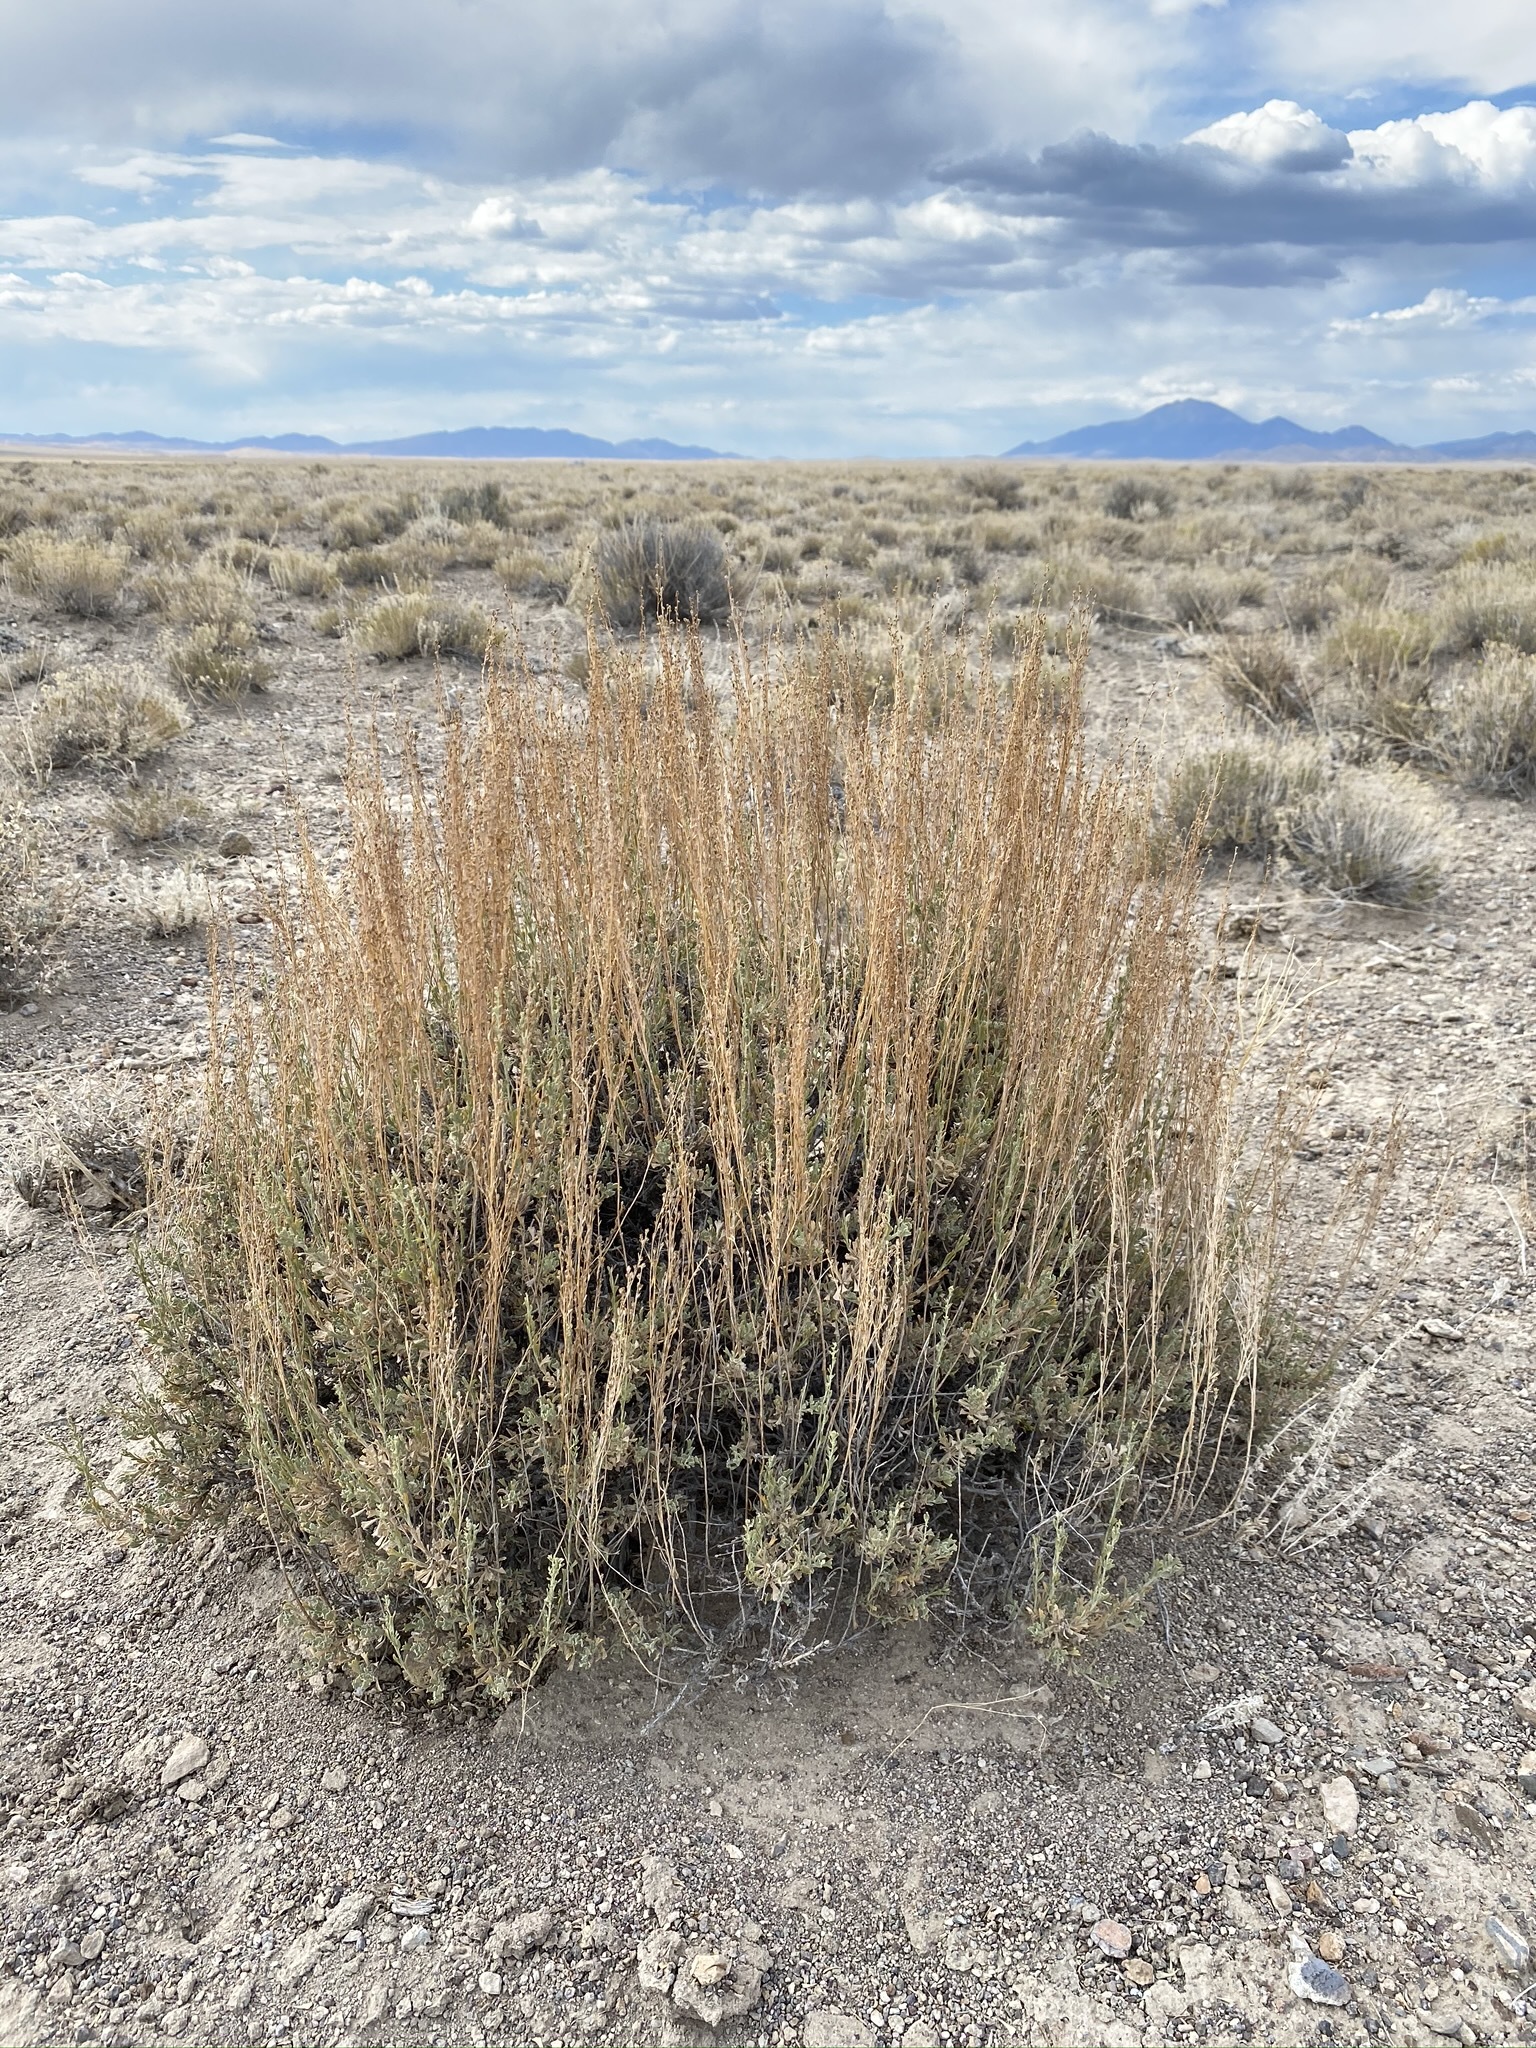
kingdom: Plantae
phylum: Tracheophyta
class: Magnoliopsida
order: Asterales
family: Asteraceae
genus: Artemisia
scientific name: Artemisia nova
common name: Black-sage
